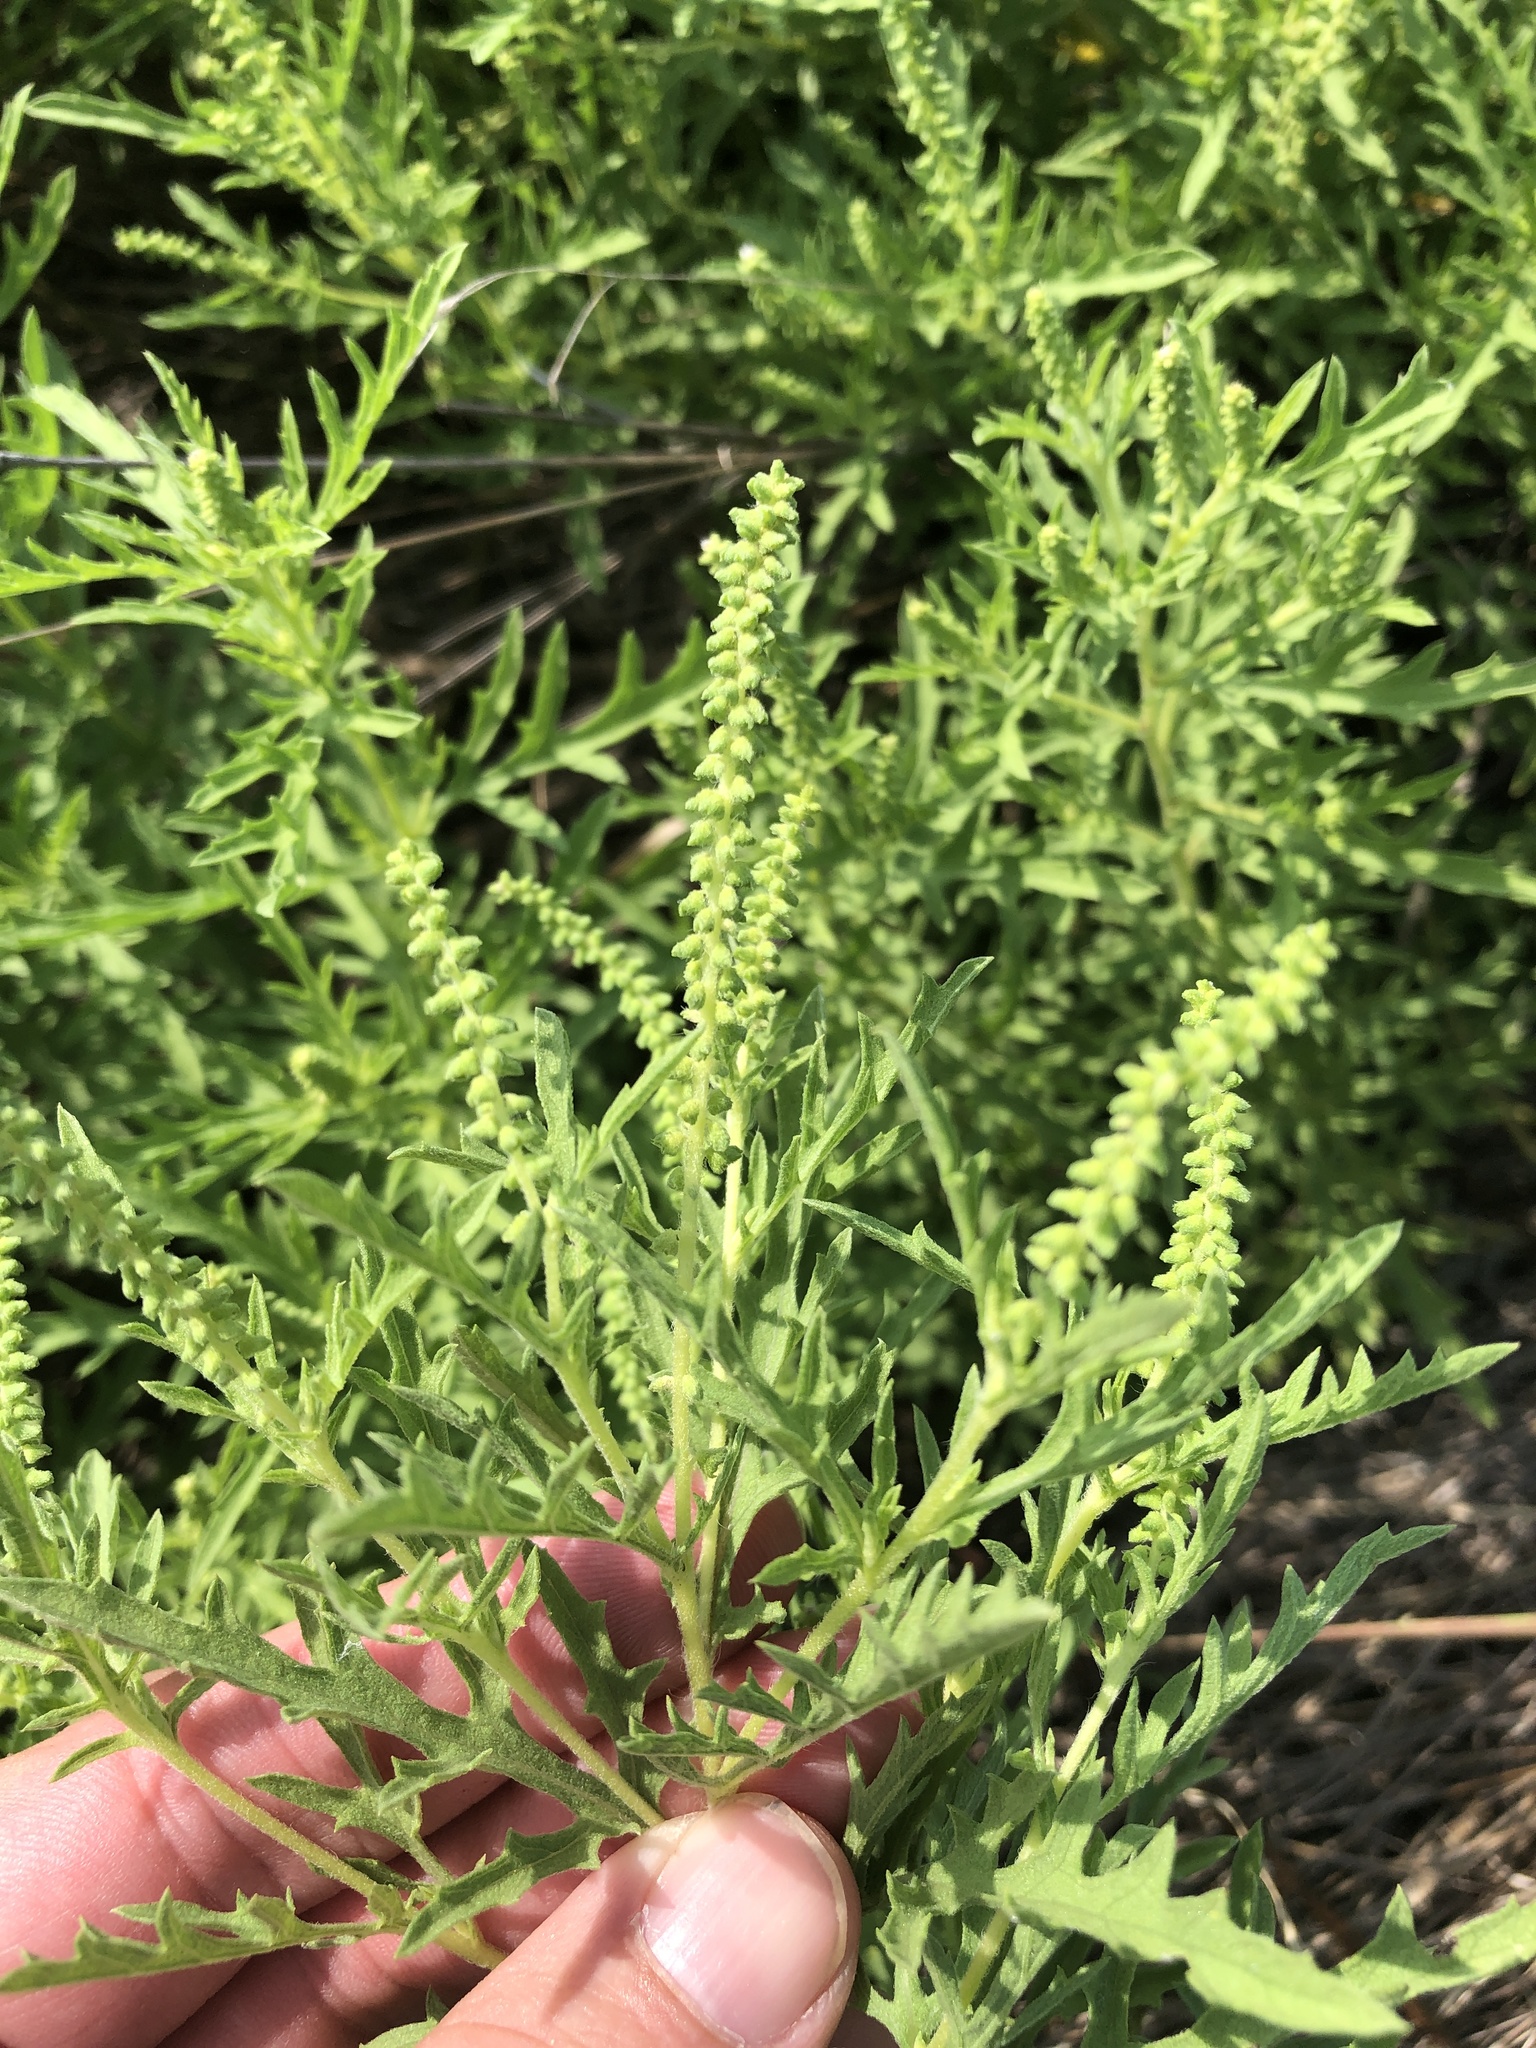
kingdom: Plantae
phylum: Tracheophyta
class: Magnoliopsida
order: Asterales
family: Asteraceae
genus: Ambrosia
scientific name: Ambrosia psilostachya
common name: Perennial ragweed
